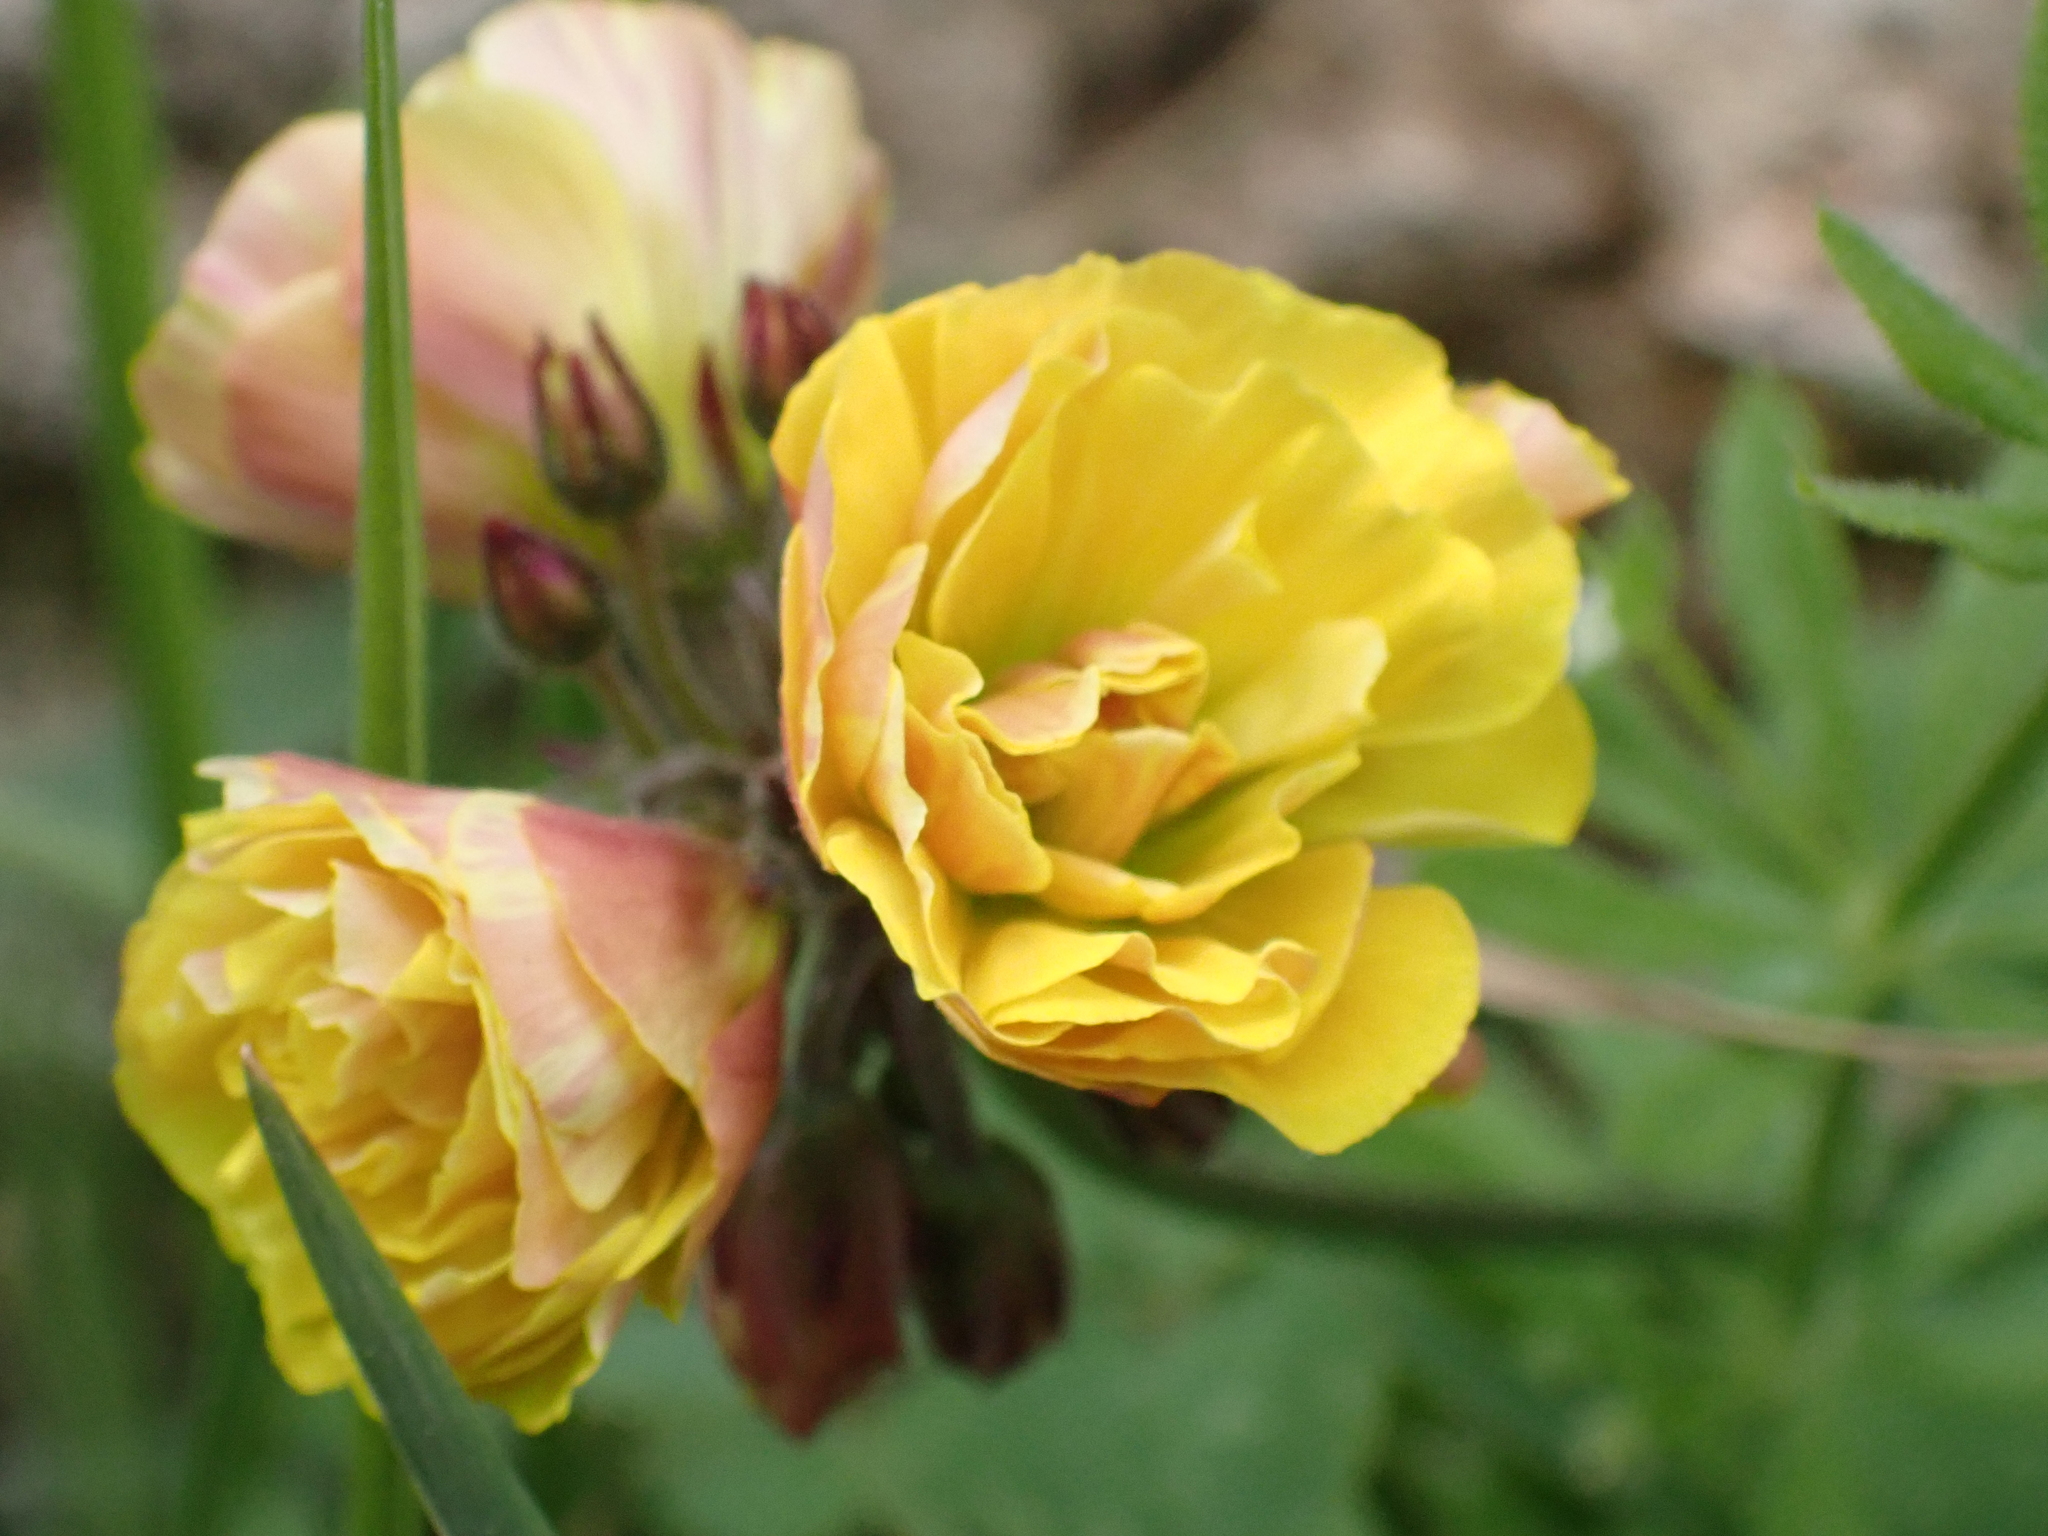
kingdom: Plantae
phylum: Tracheophyta
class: Magnoliopsida
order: Oxalidales
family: Oxalidaceae
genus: Oxalis
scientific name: Oxalis pes-caprae
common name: Bermuda-buttercup
